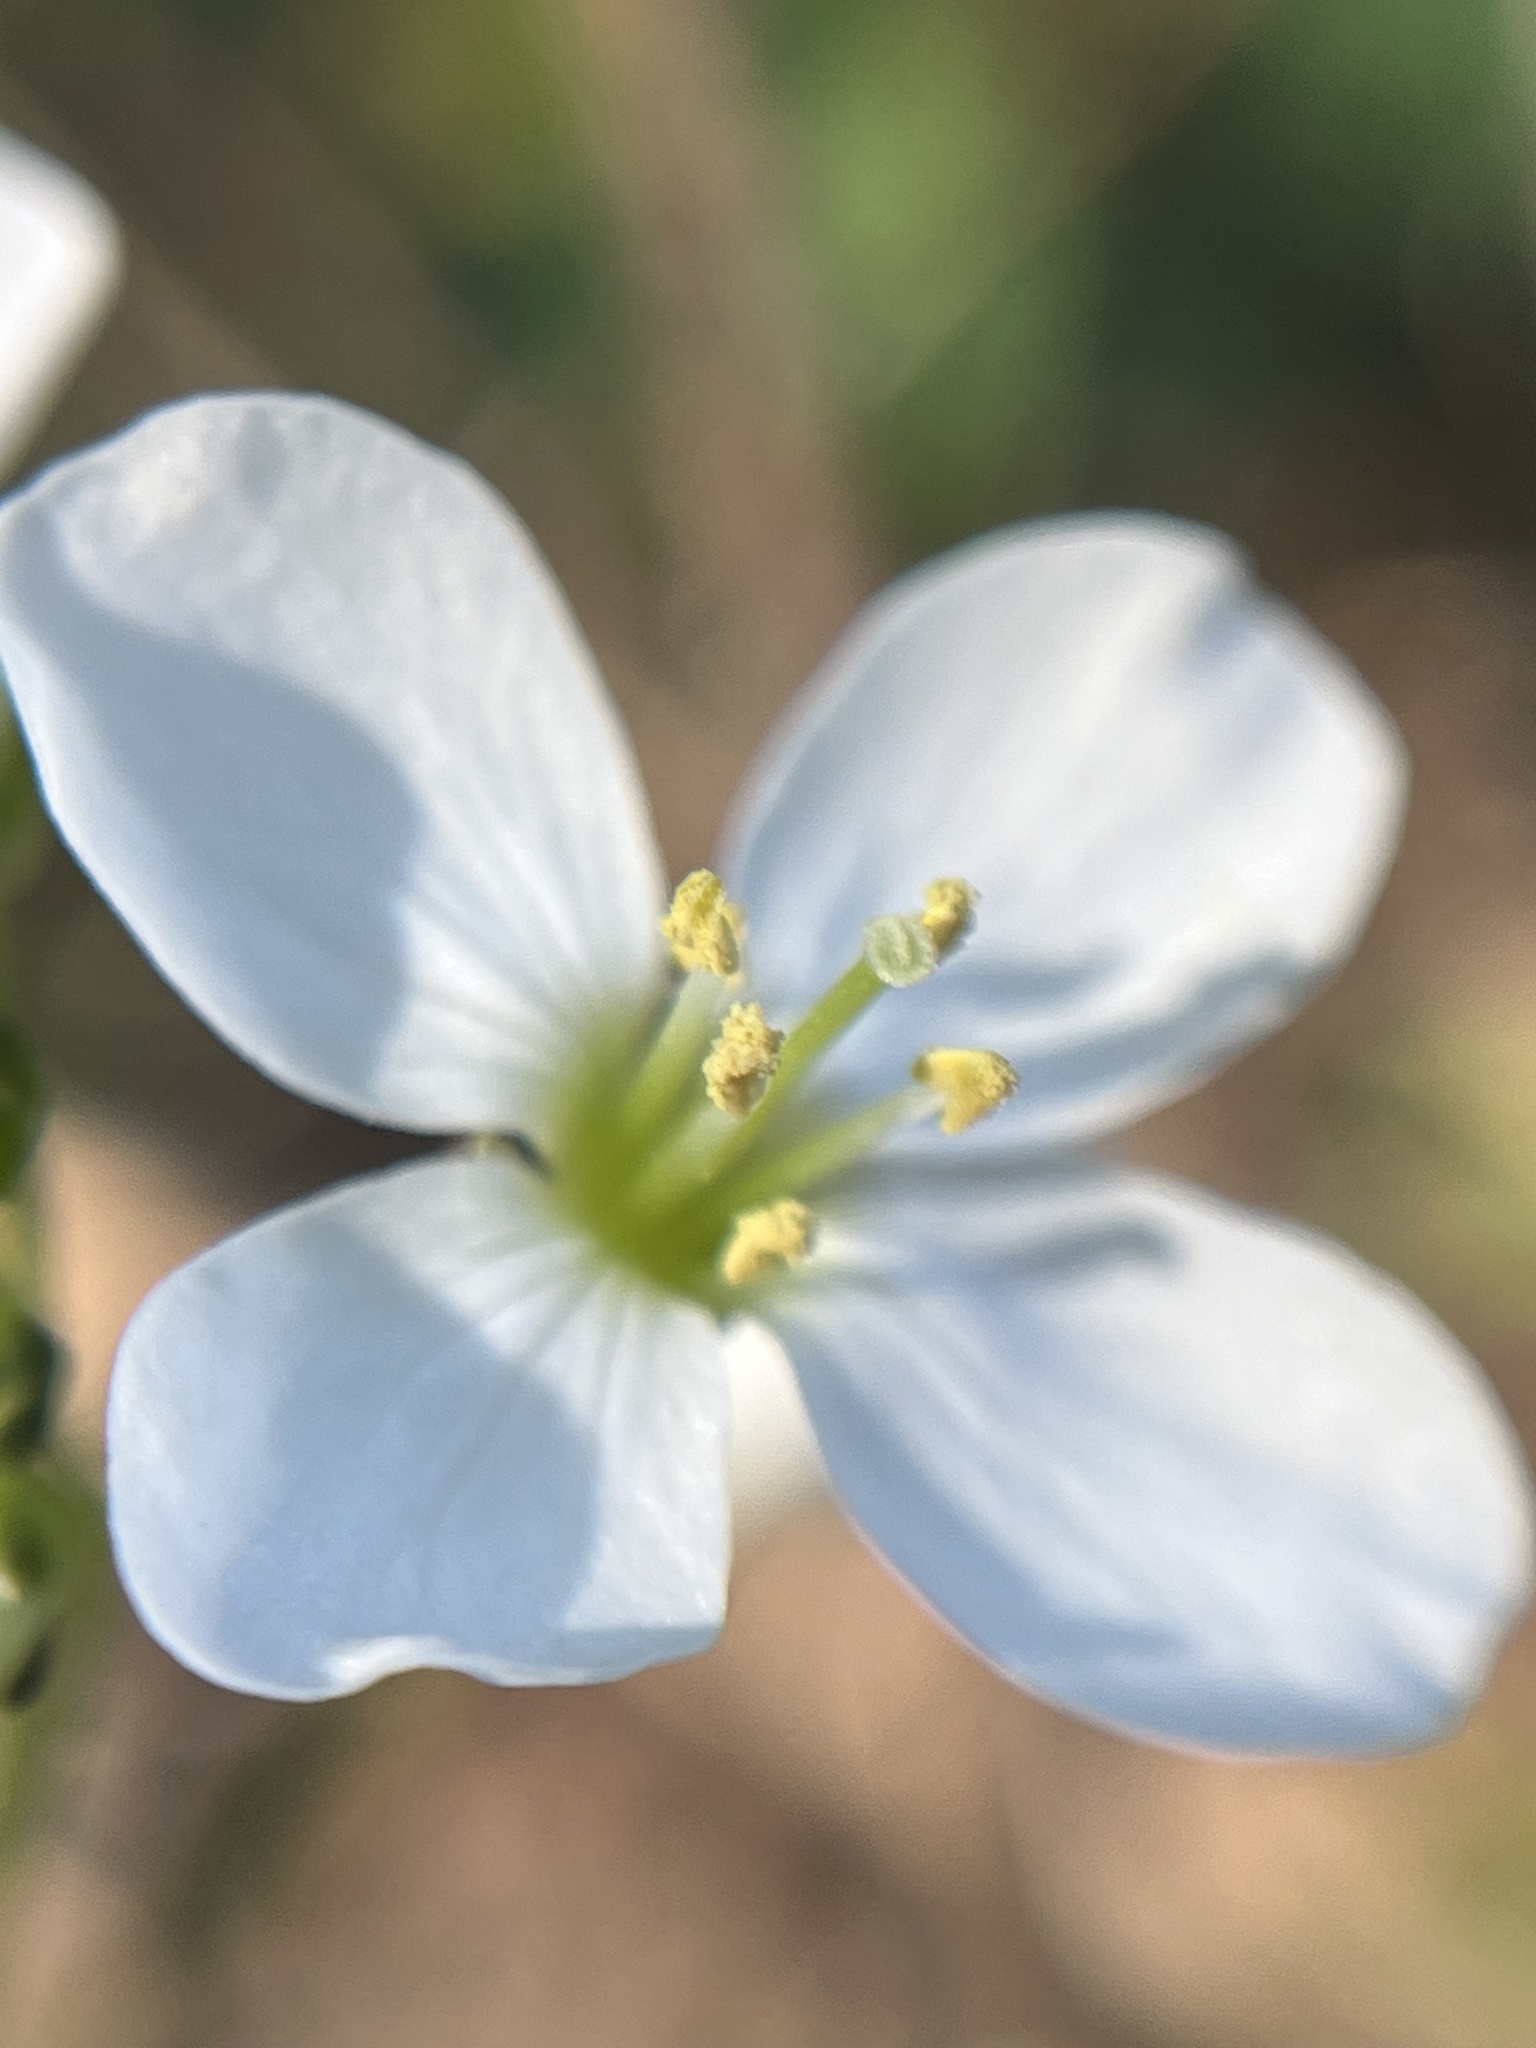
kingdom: Plantae
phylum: Tracheophyta
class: Magnoliopsida
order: Brassicales
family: Brassicaceae
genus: Cardamine
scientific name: Cardamine californica
